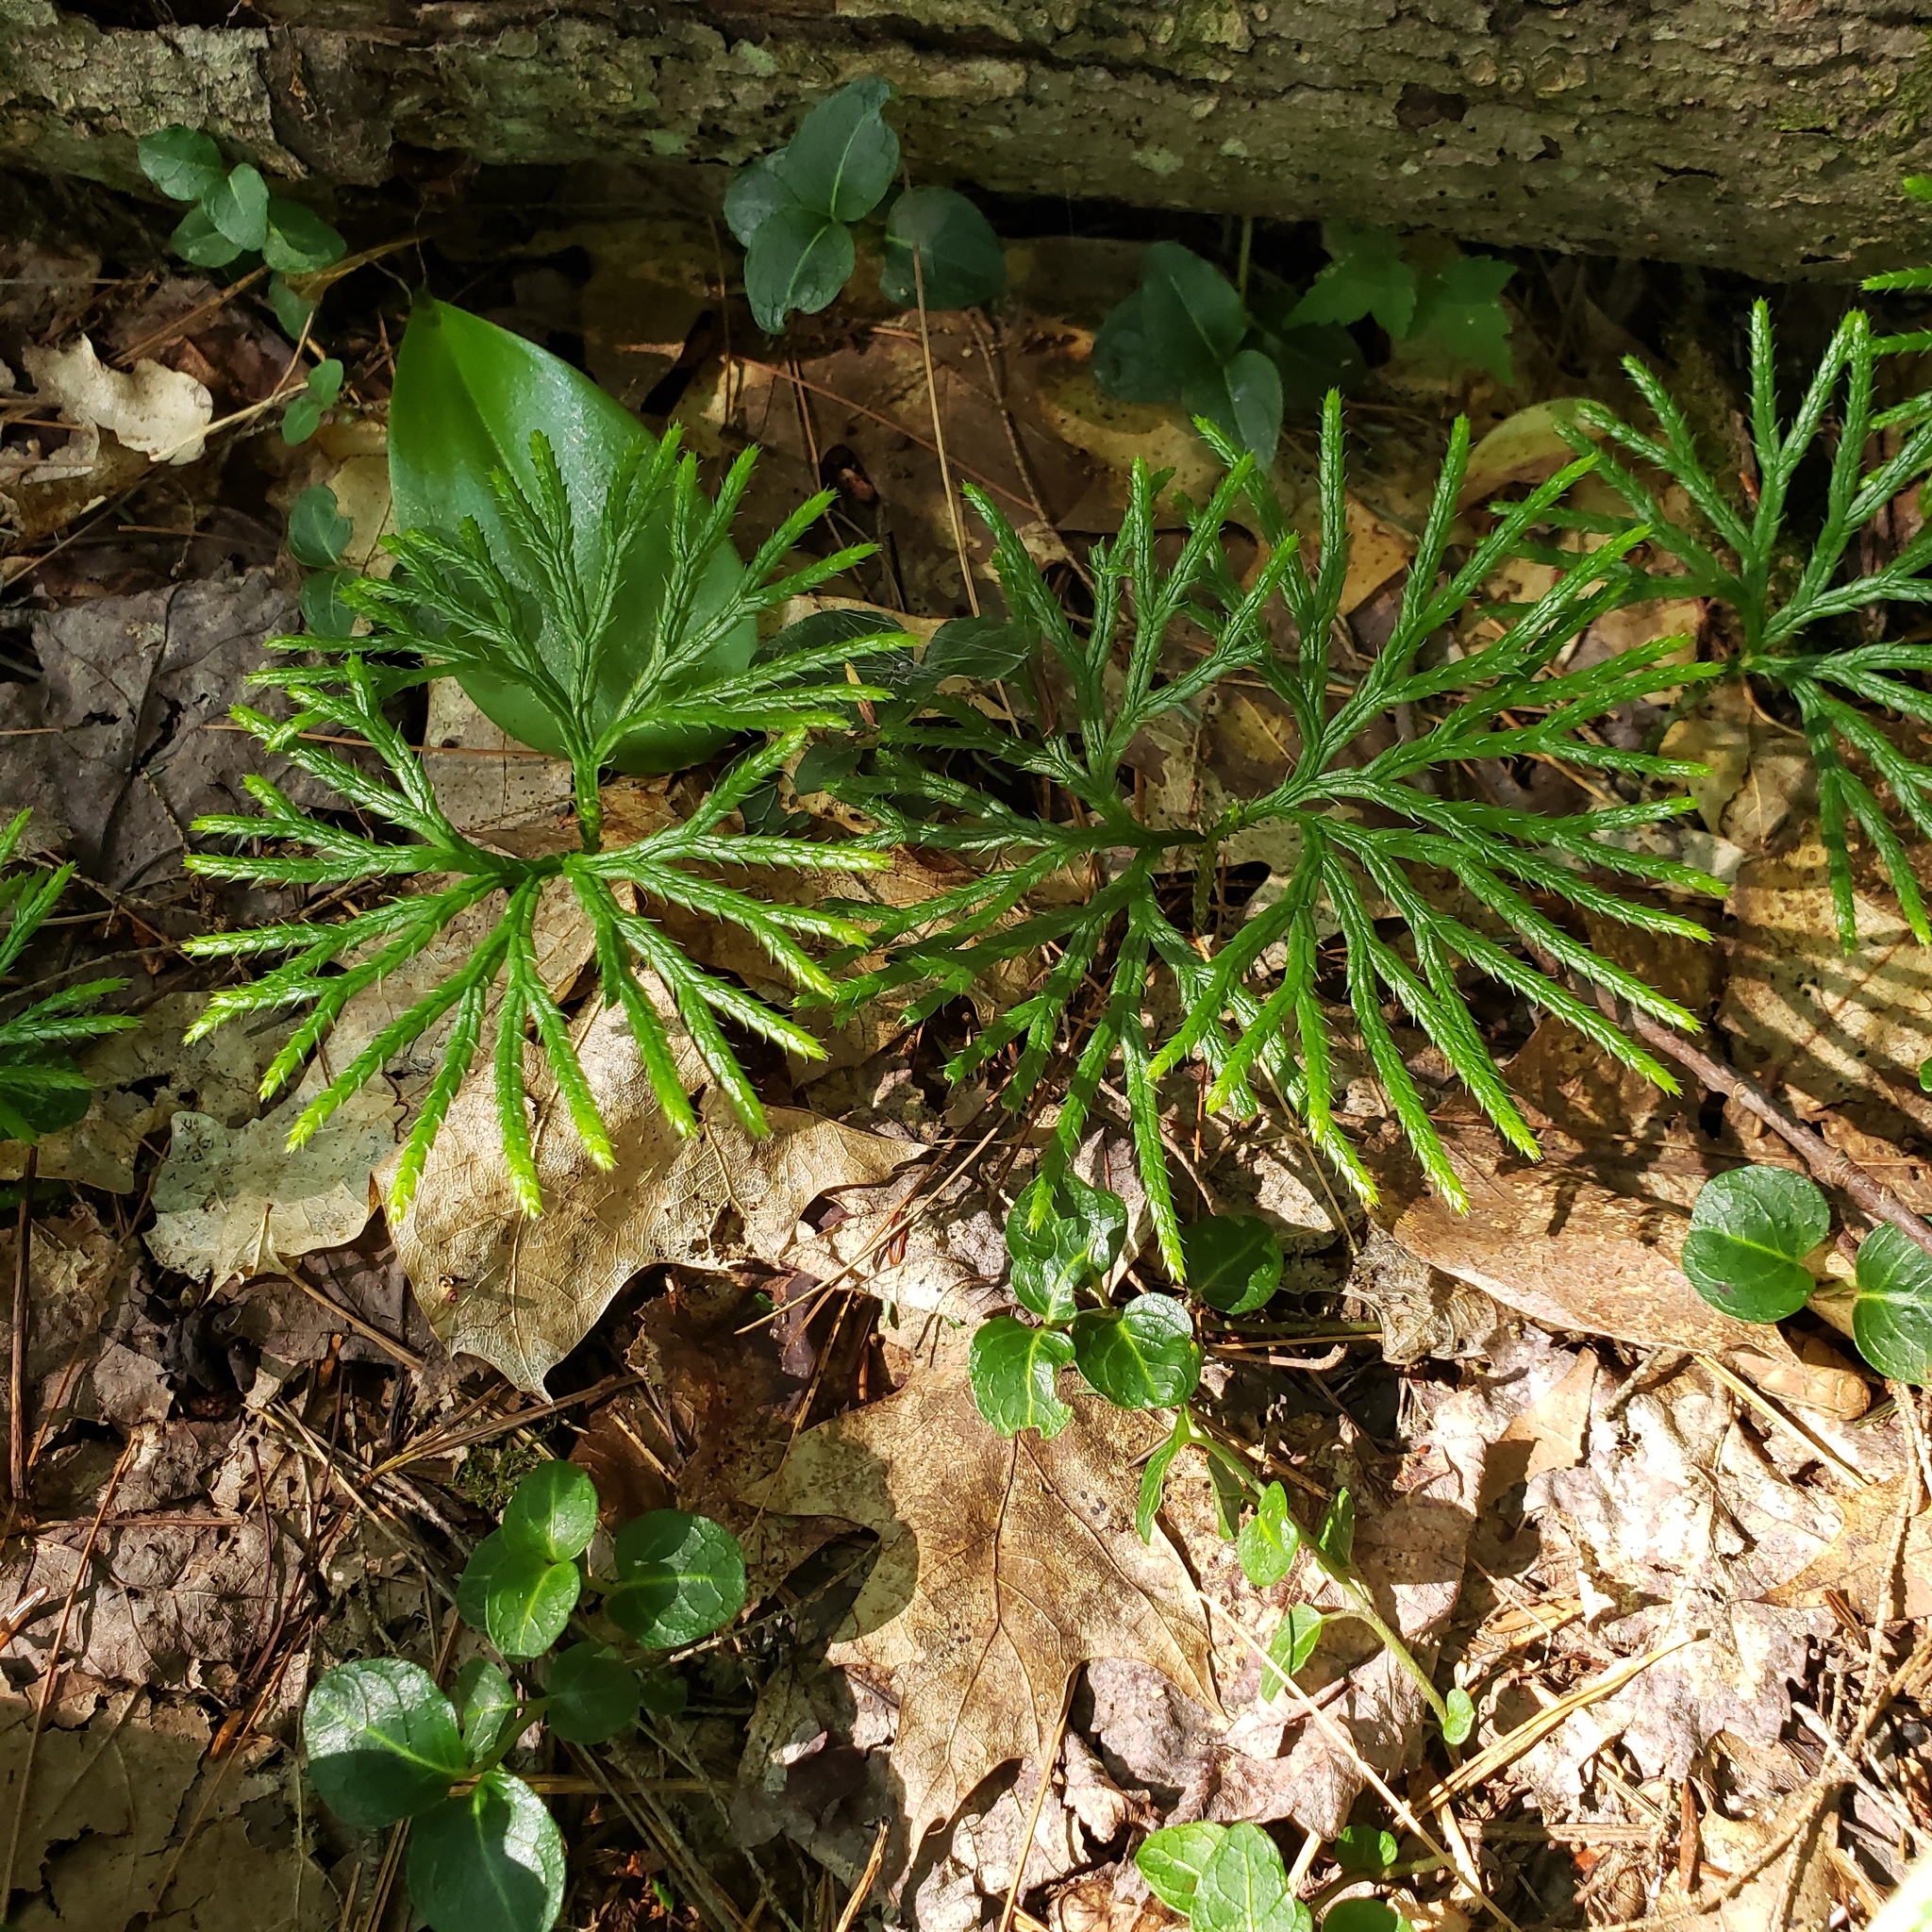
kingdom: Plantae
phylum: Tracheophyta
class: Lycopodiopsida
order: Lycopodiales
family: Lycopodiaceae
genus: Diphasiastrum
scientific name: Diphasiastrum digitatum
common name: Southern running-pine
